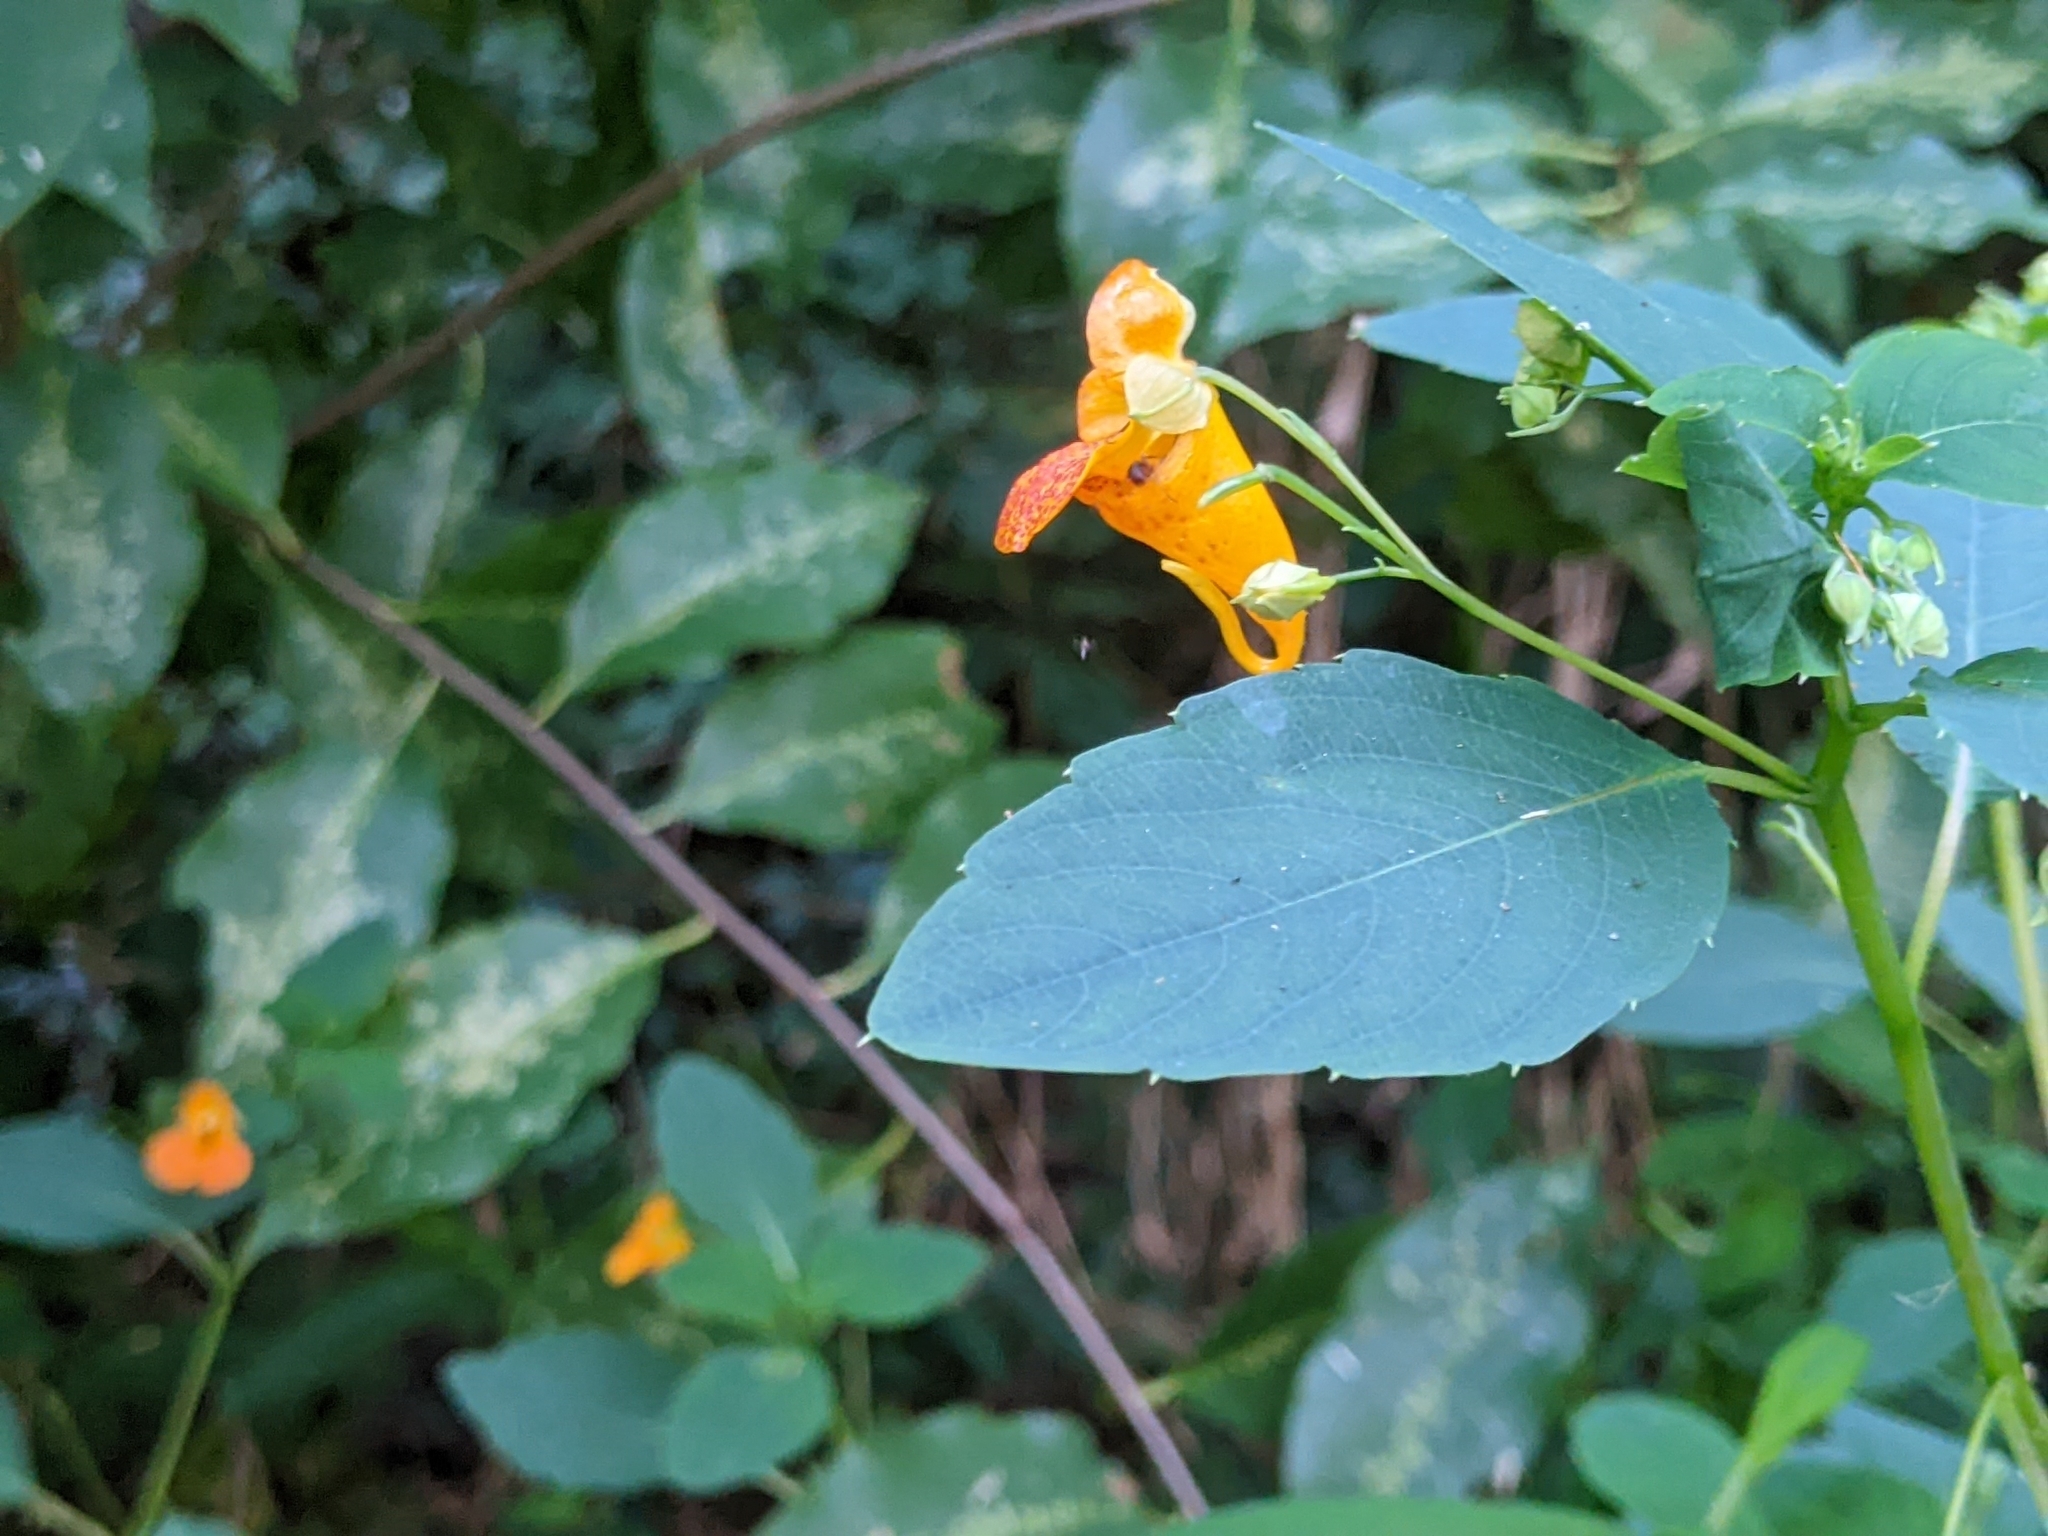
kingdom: Plantae
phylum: Tracheophyta
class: Magnoliopsida
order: Ericales
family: Balsaminaceae
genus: Impatiens
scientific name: Impatiens capensis
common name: Orange balsam
